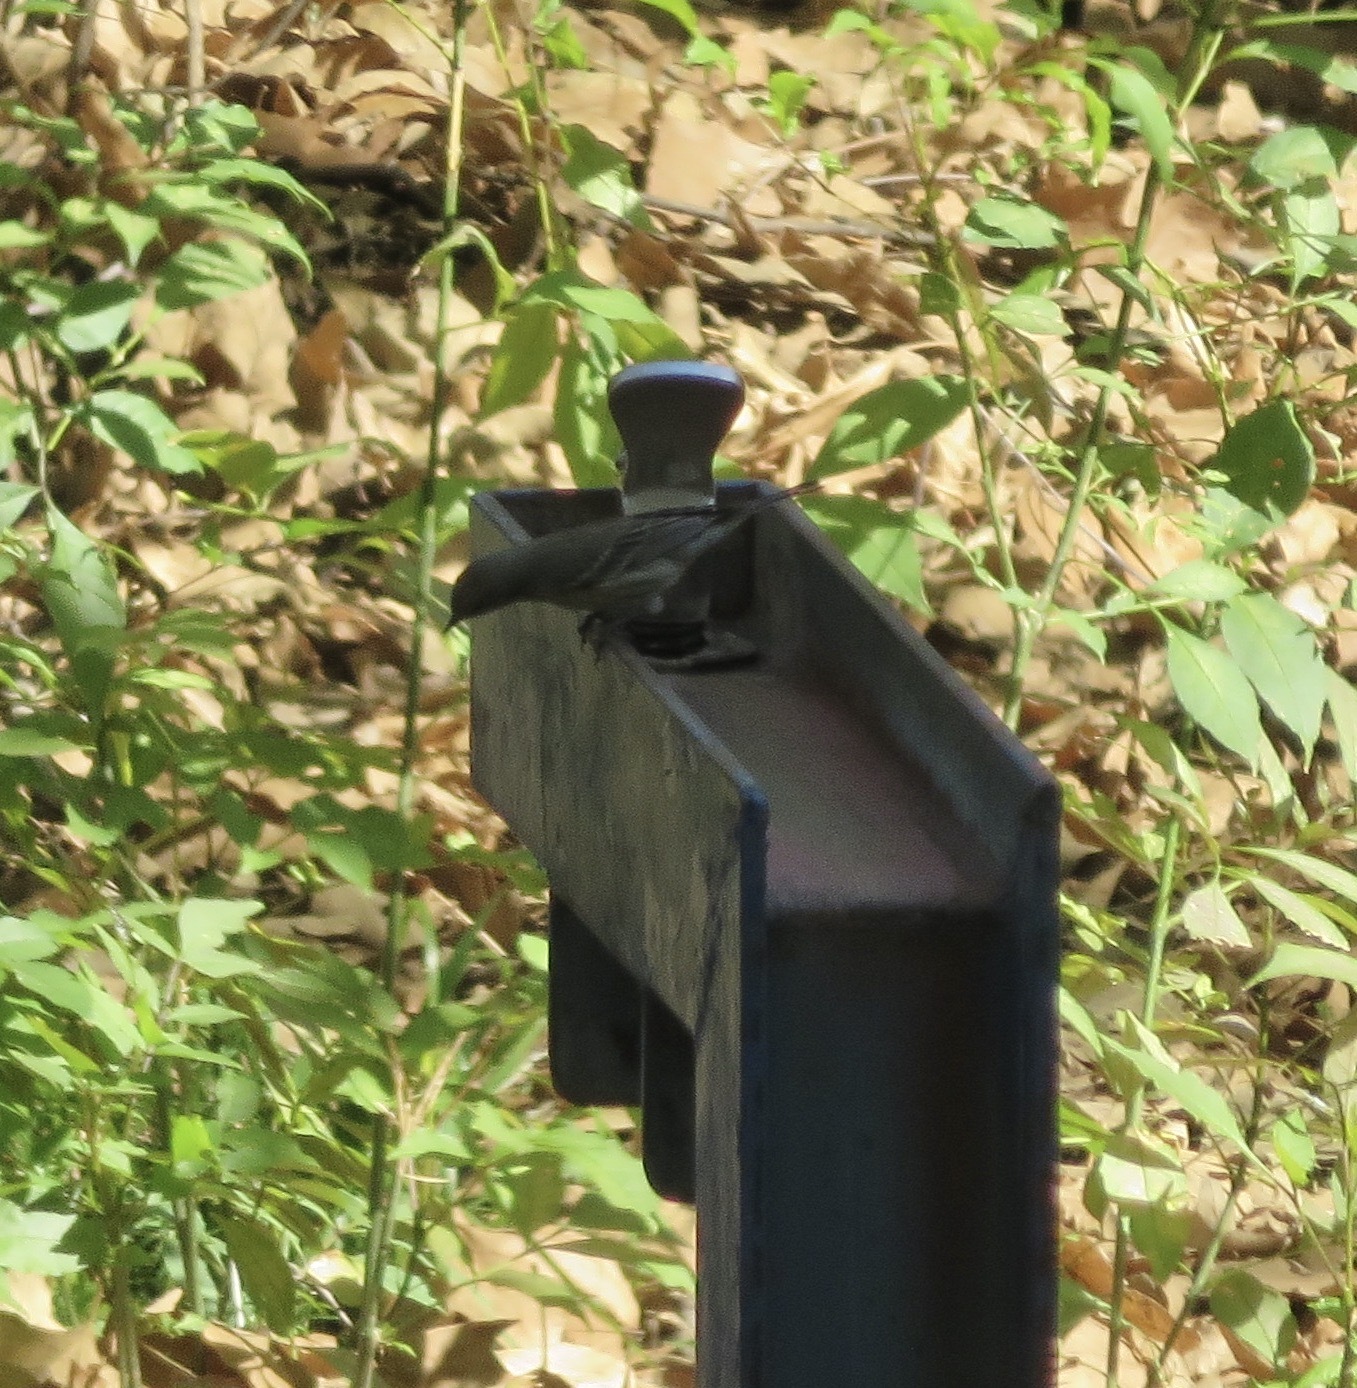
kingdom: Animalia
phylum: Chordata
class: Aves
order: Passeriformes
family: Parulidae
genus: Setophaga
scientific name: Setophaga coronata
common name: Myrtle warbler
